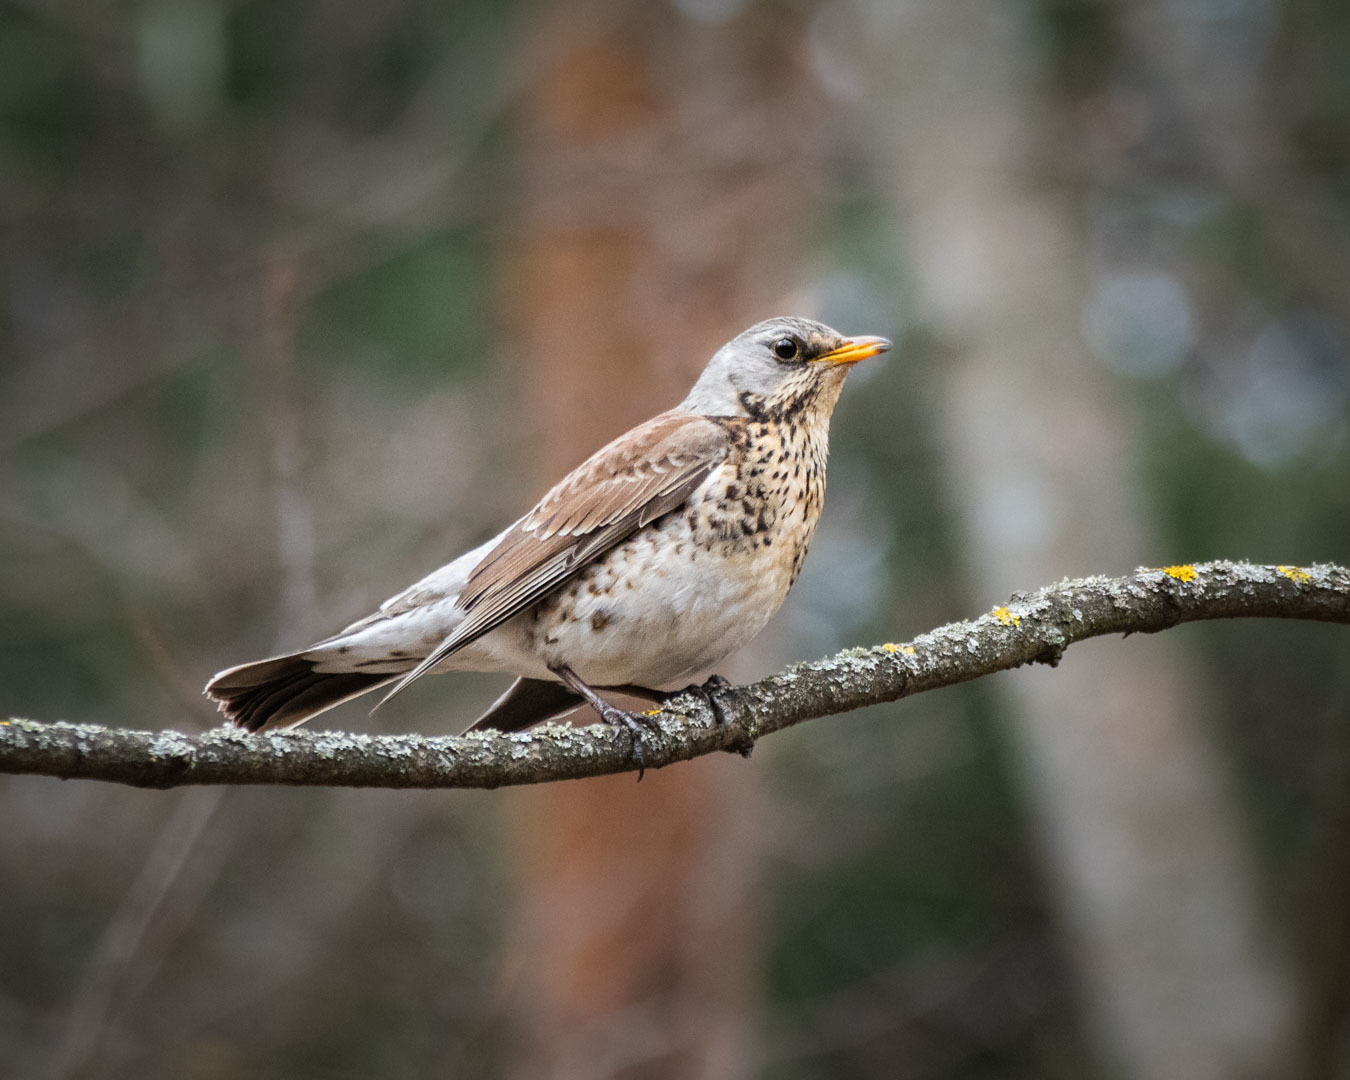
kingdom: Animalia
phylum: Chordata
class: Aves
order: Passeriformes
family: Turdidae
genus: Turdus
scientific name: Turdus pilaris
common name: Fieldfare
